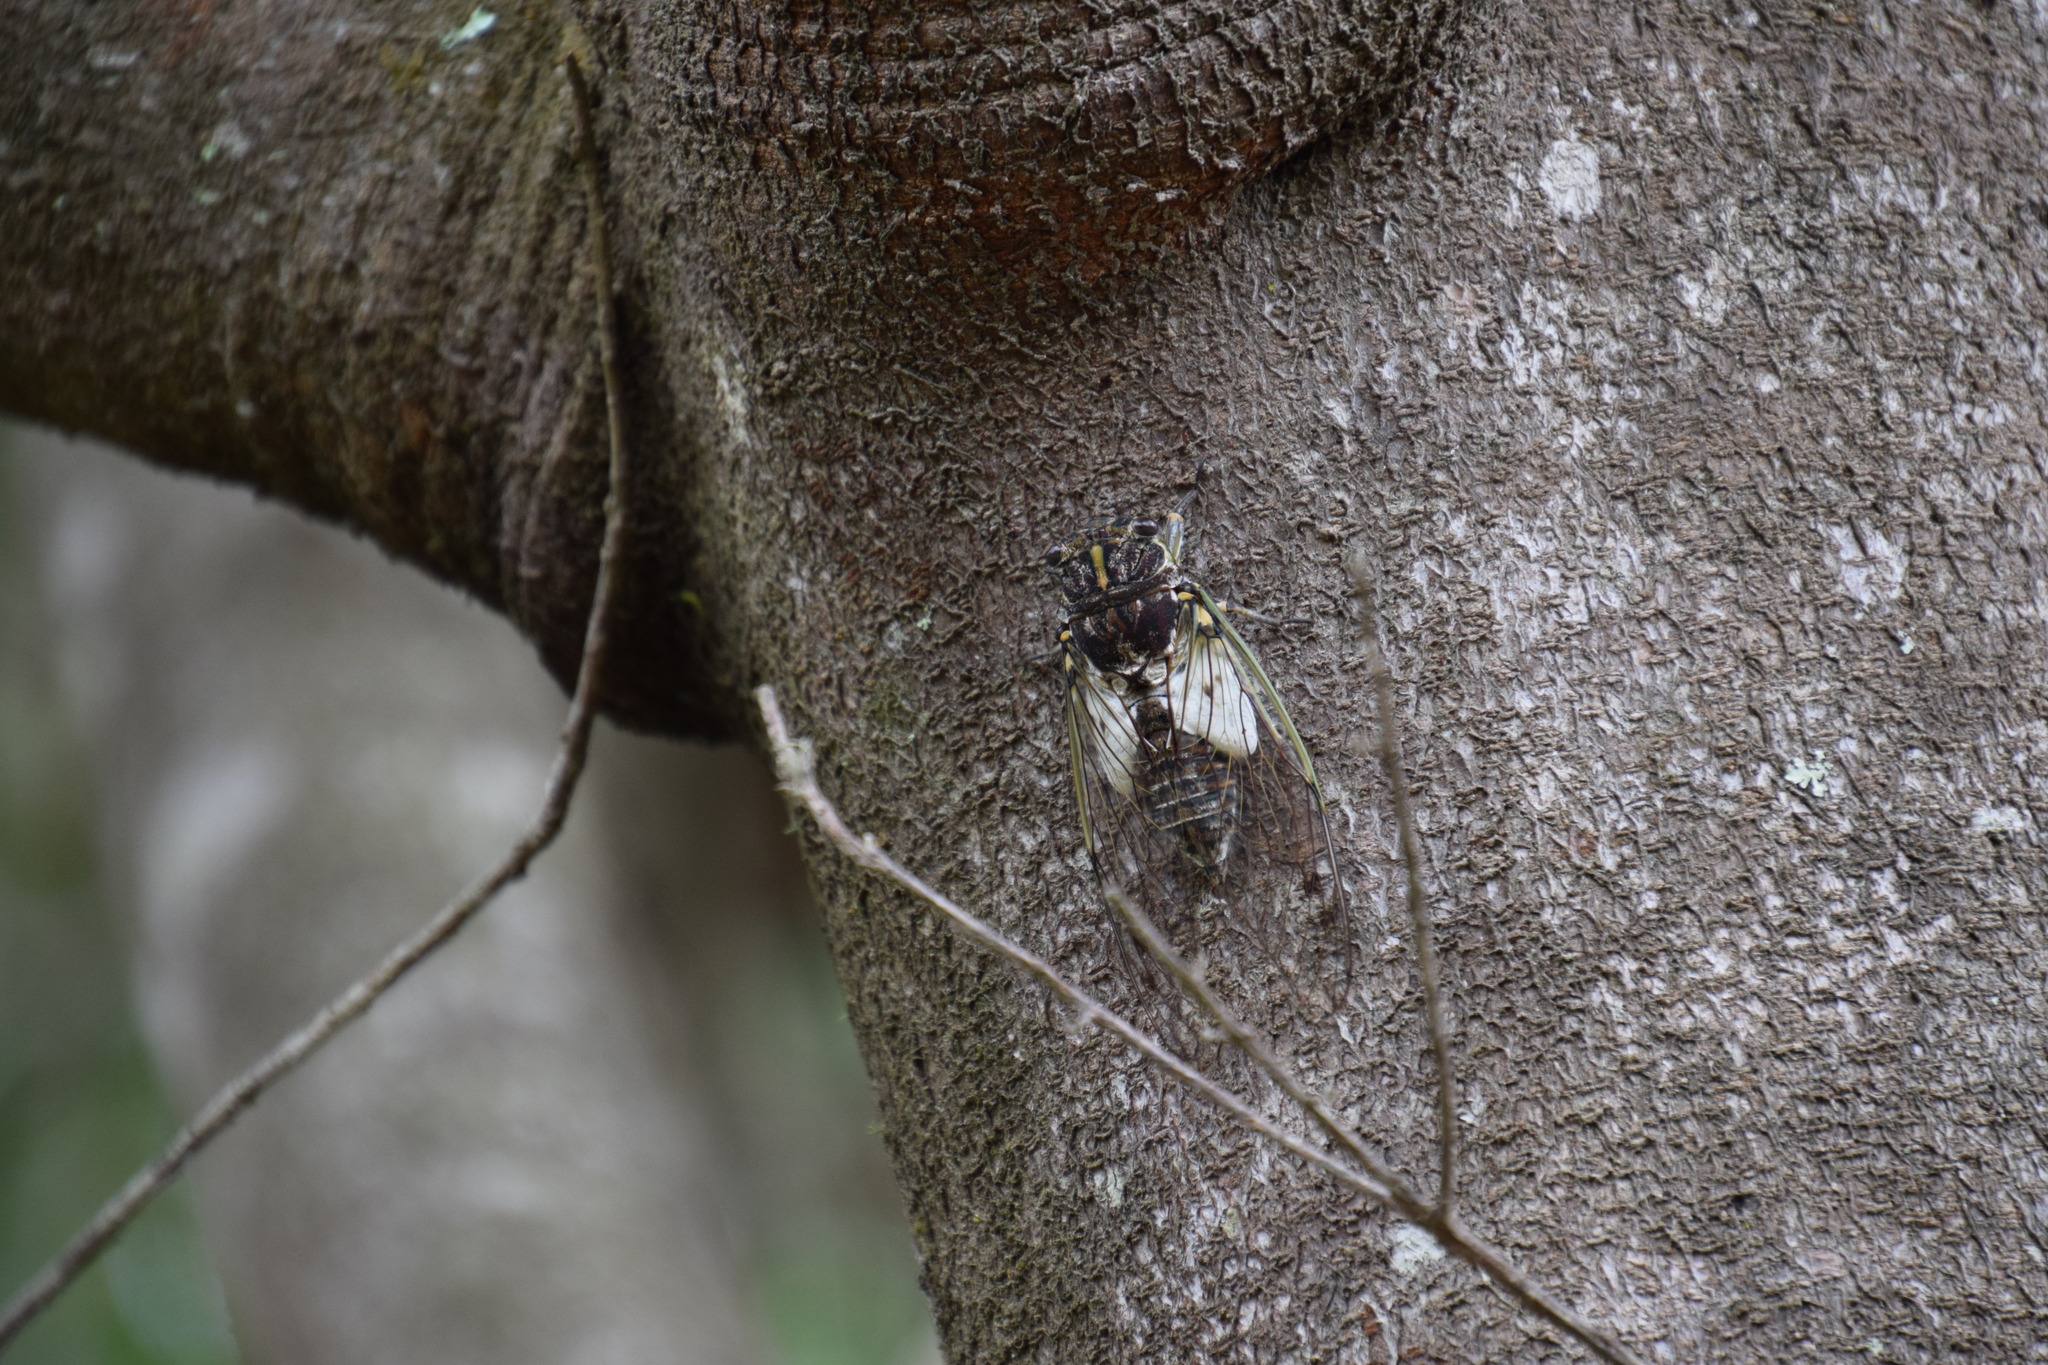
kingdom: Animalia
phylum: Arthropoda
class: Insecta
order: Hemiptera
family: Cicadidae
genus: Arunta
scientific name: Arunta perulata
